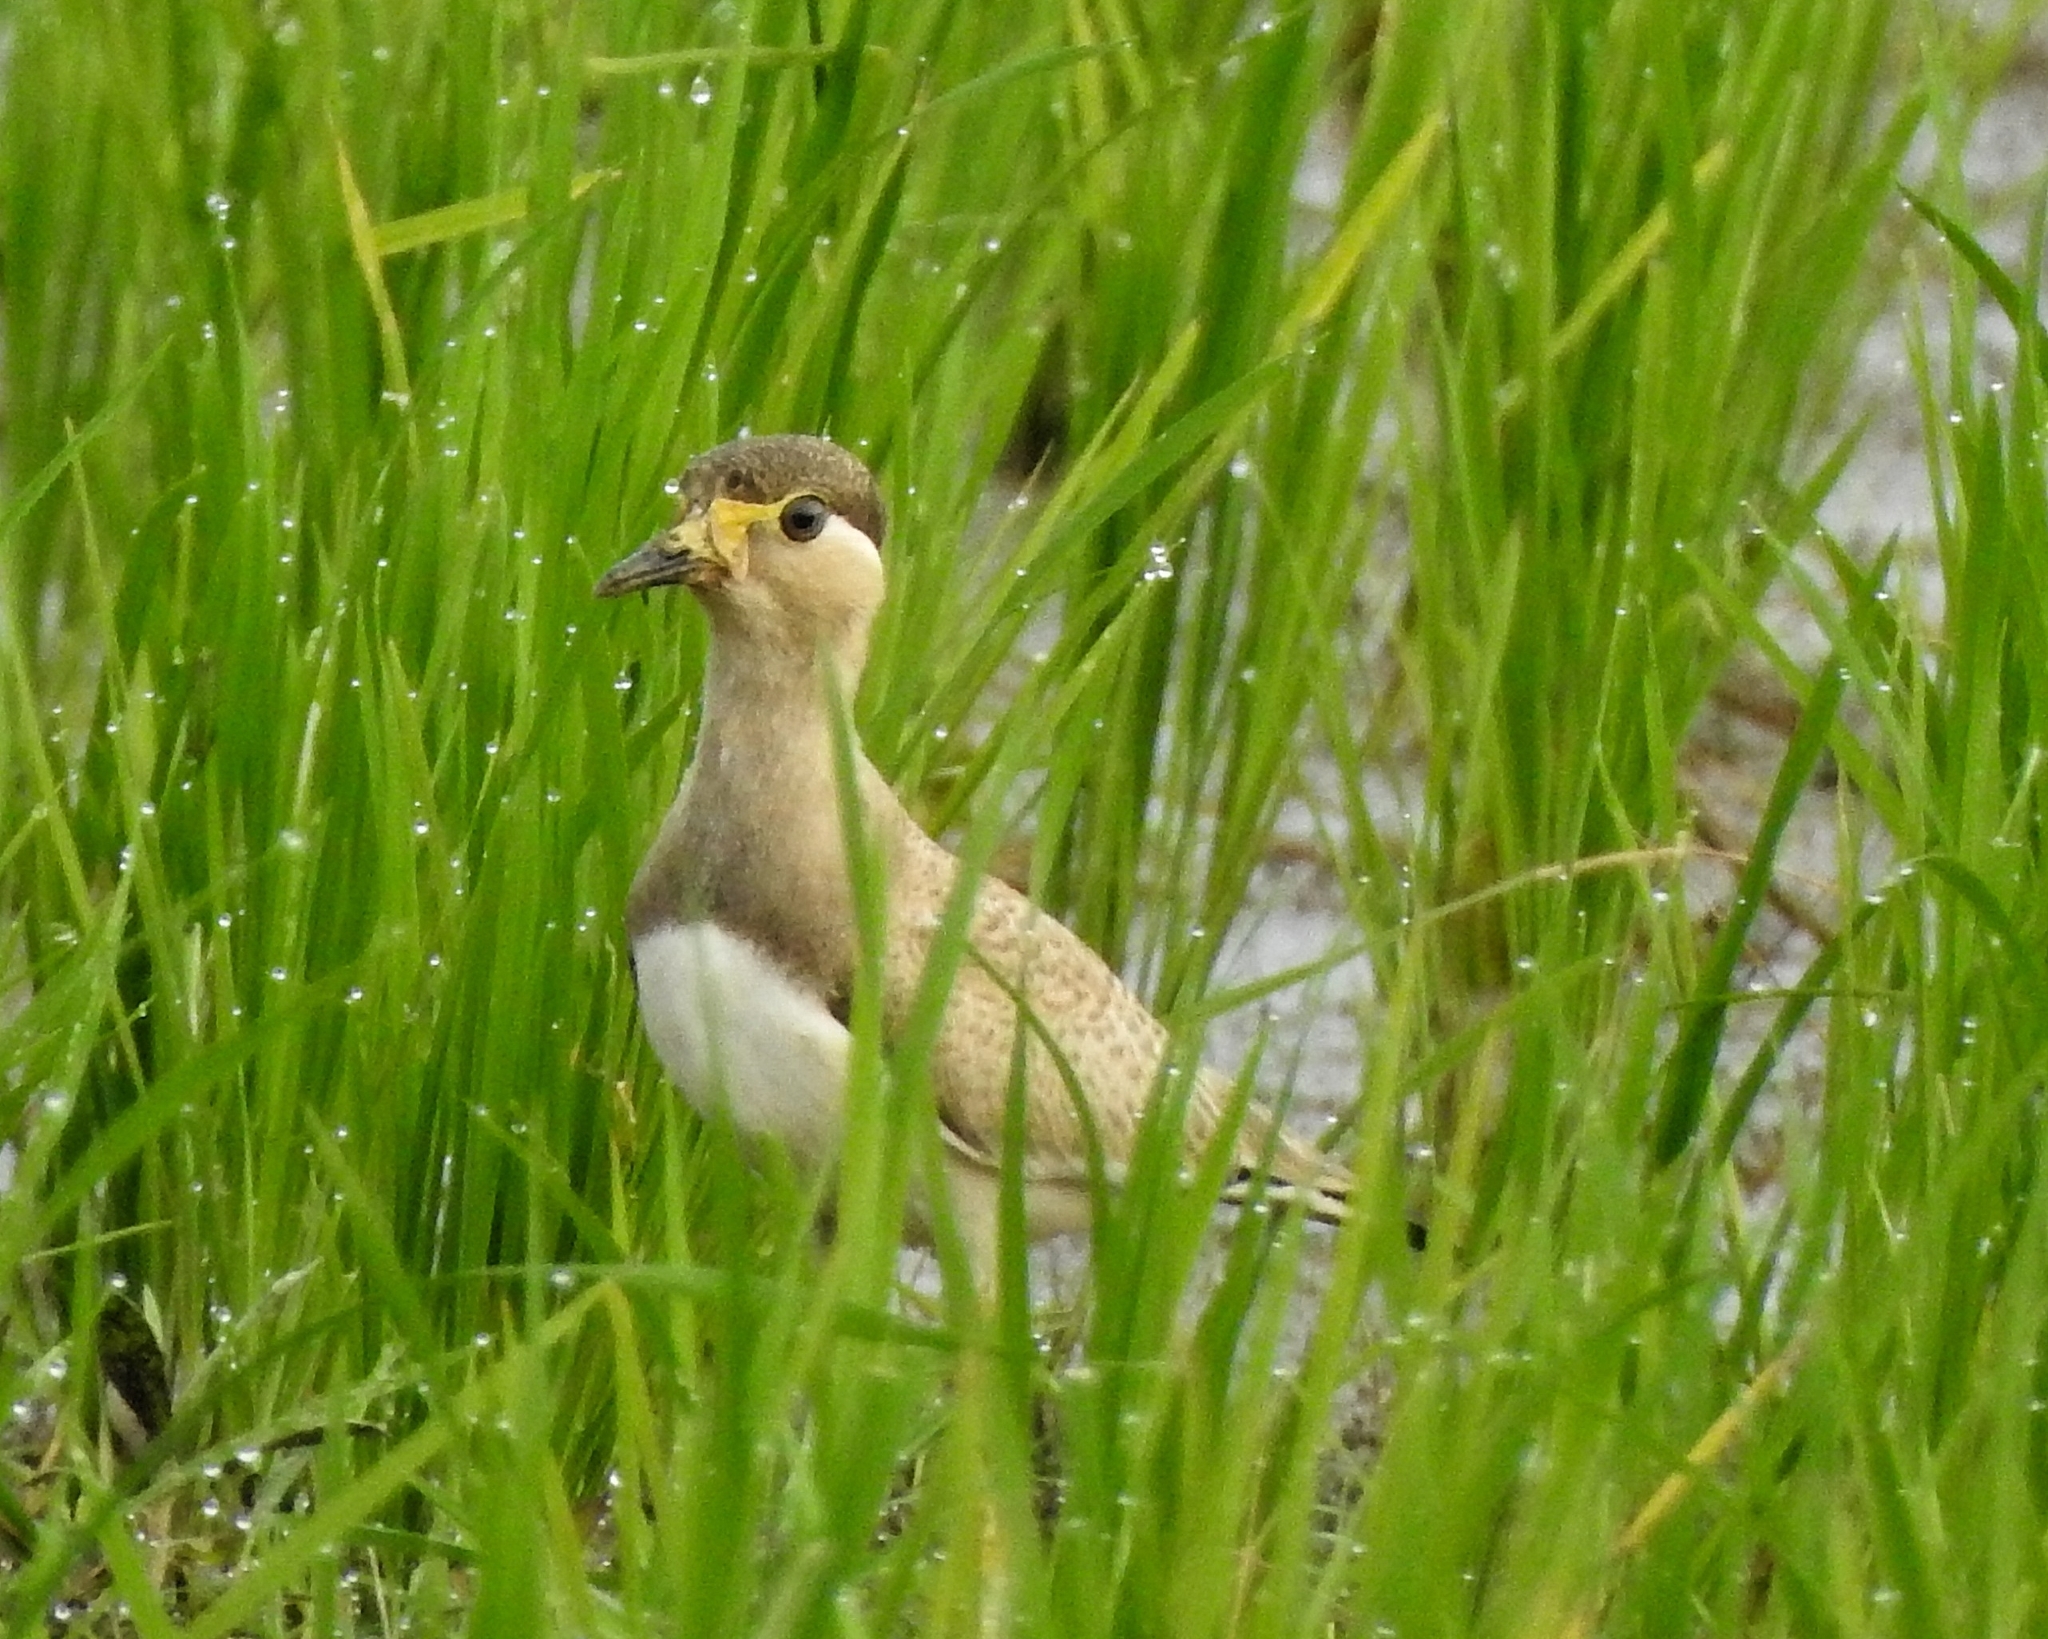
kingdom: Animalia
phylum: Chordata
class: Aves
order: Charadriiformes
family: Charadriidae
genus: Vanellus
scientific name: Vanellus malabaricus
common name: Yellow-wattled lapwing
